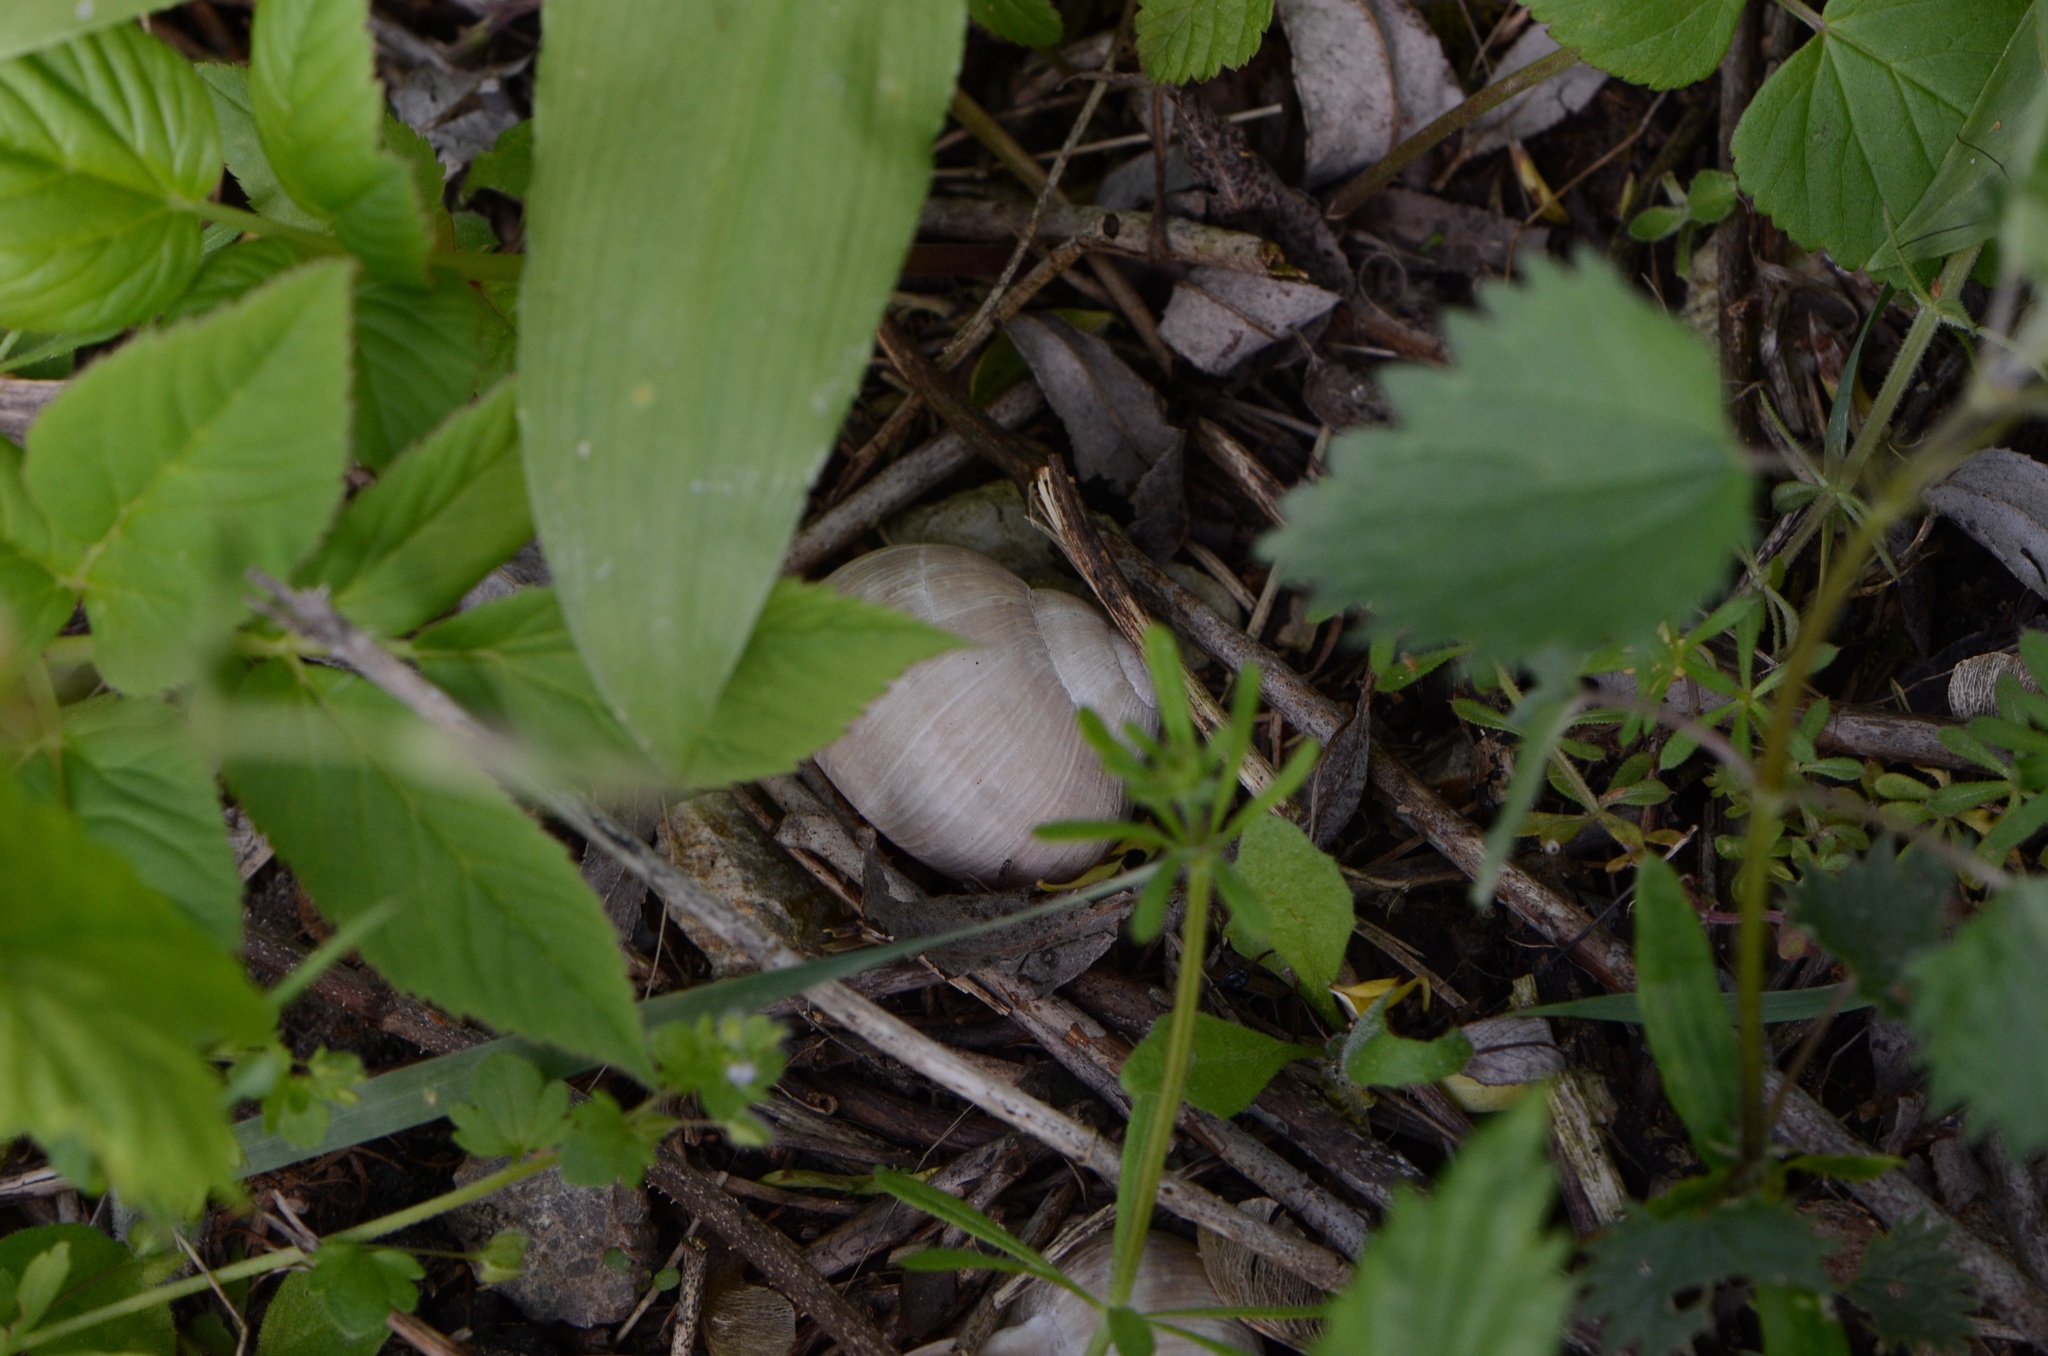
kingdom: Animalia
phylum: Mollusca
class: Gastropoda
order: Stylommatophora
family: Helicidae
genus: Helix
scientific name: Helix pomatia
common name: Roman snail
